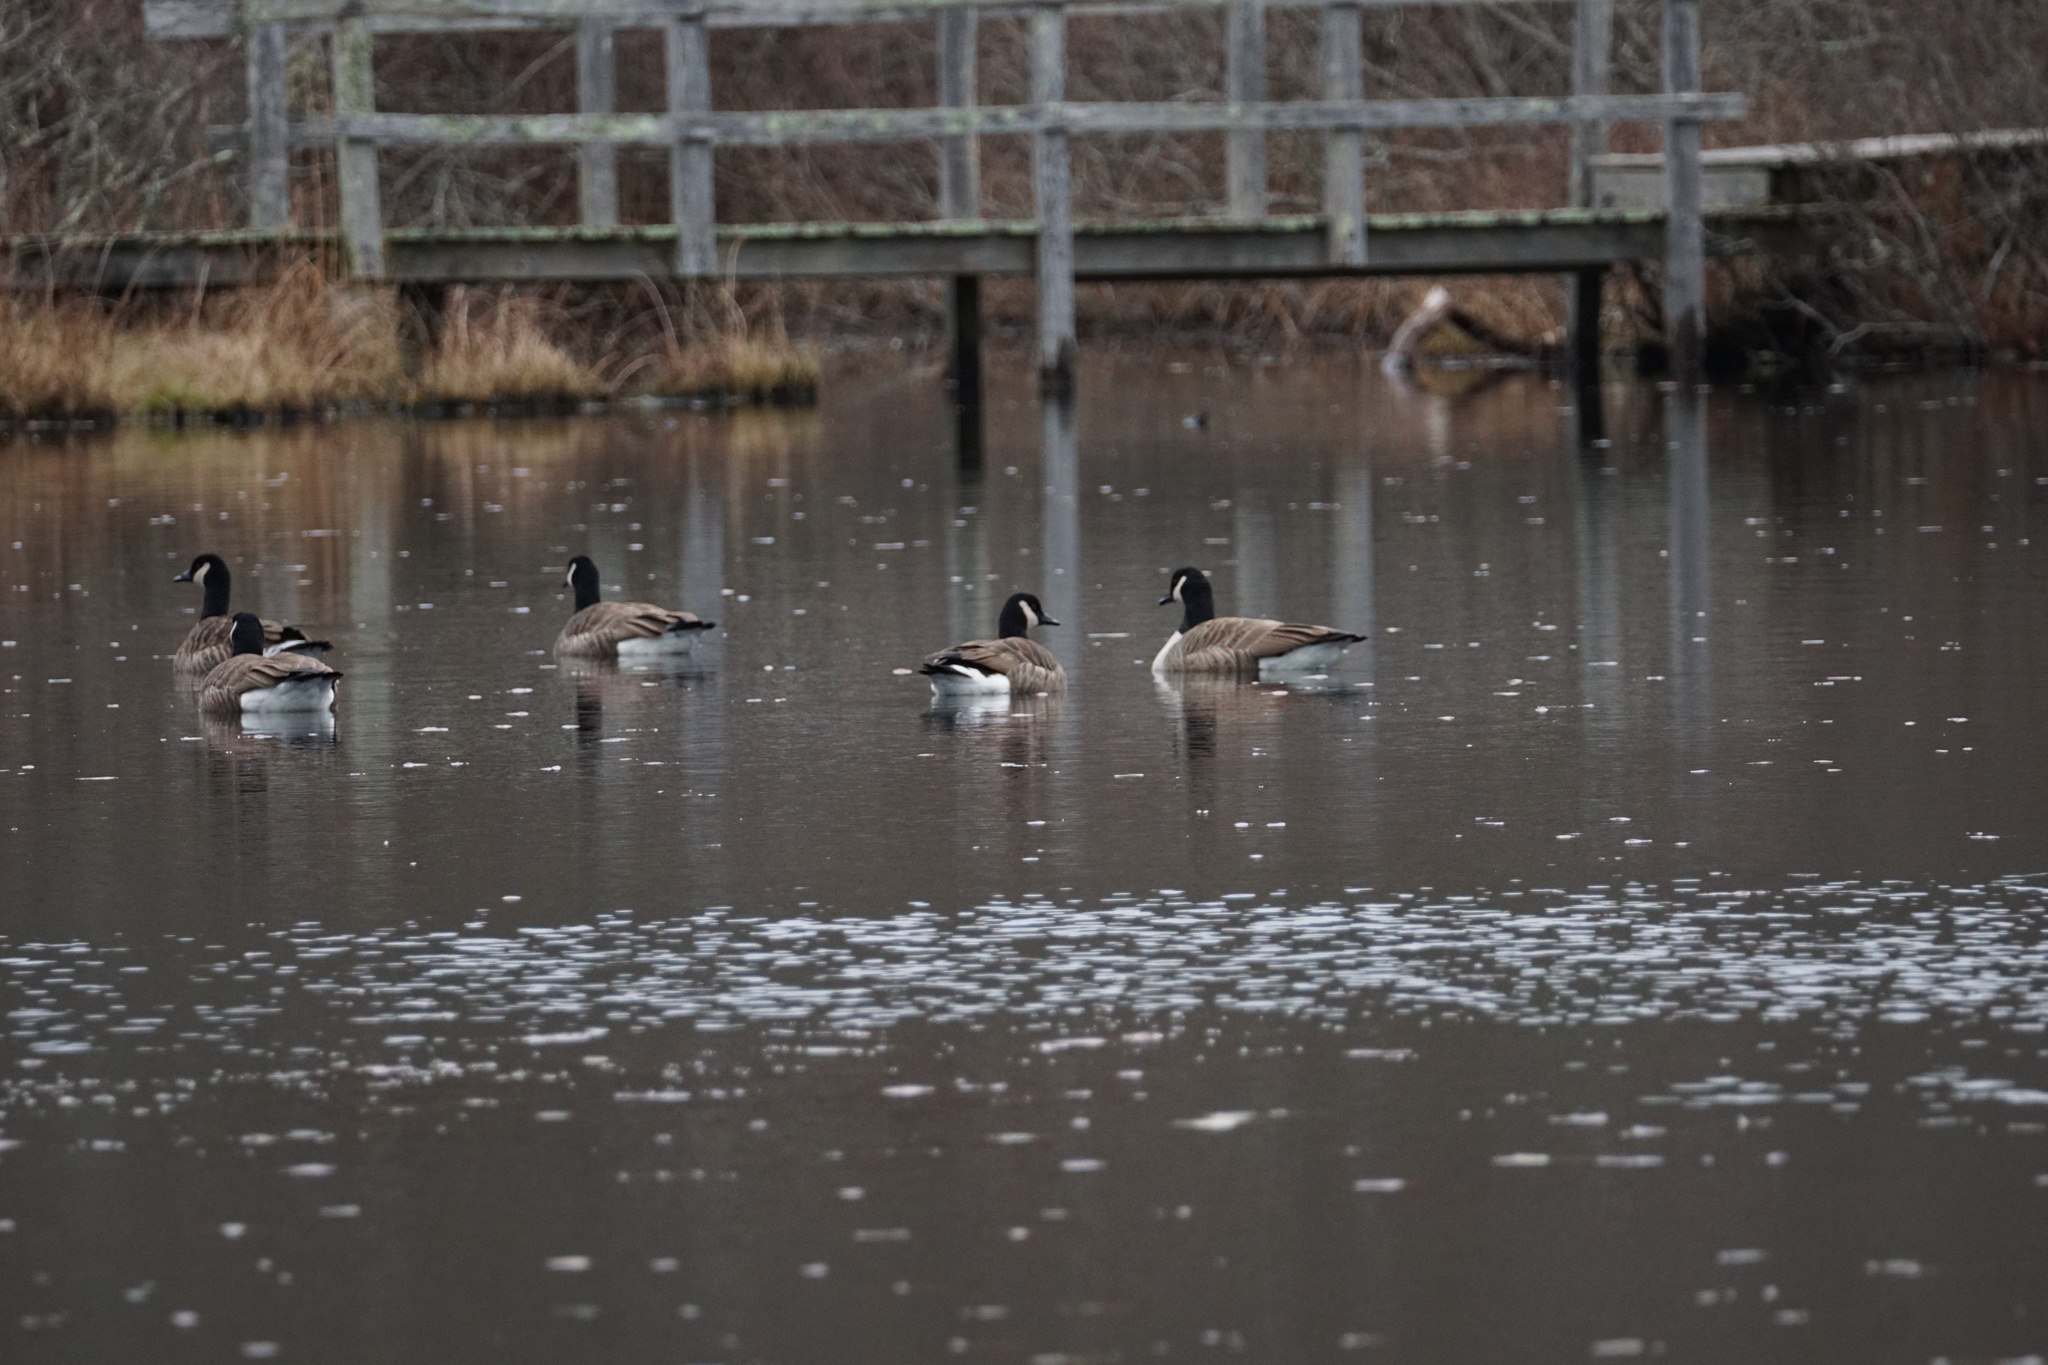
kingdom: Animalia
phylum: Chordata
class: Aves
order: Anseriformes
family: Anatidae
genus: Branta
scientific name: Branta canadensis
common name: Canada goose
